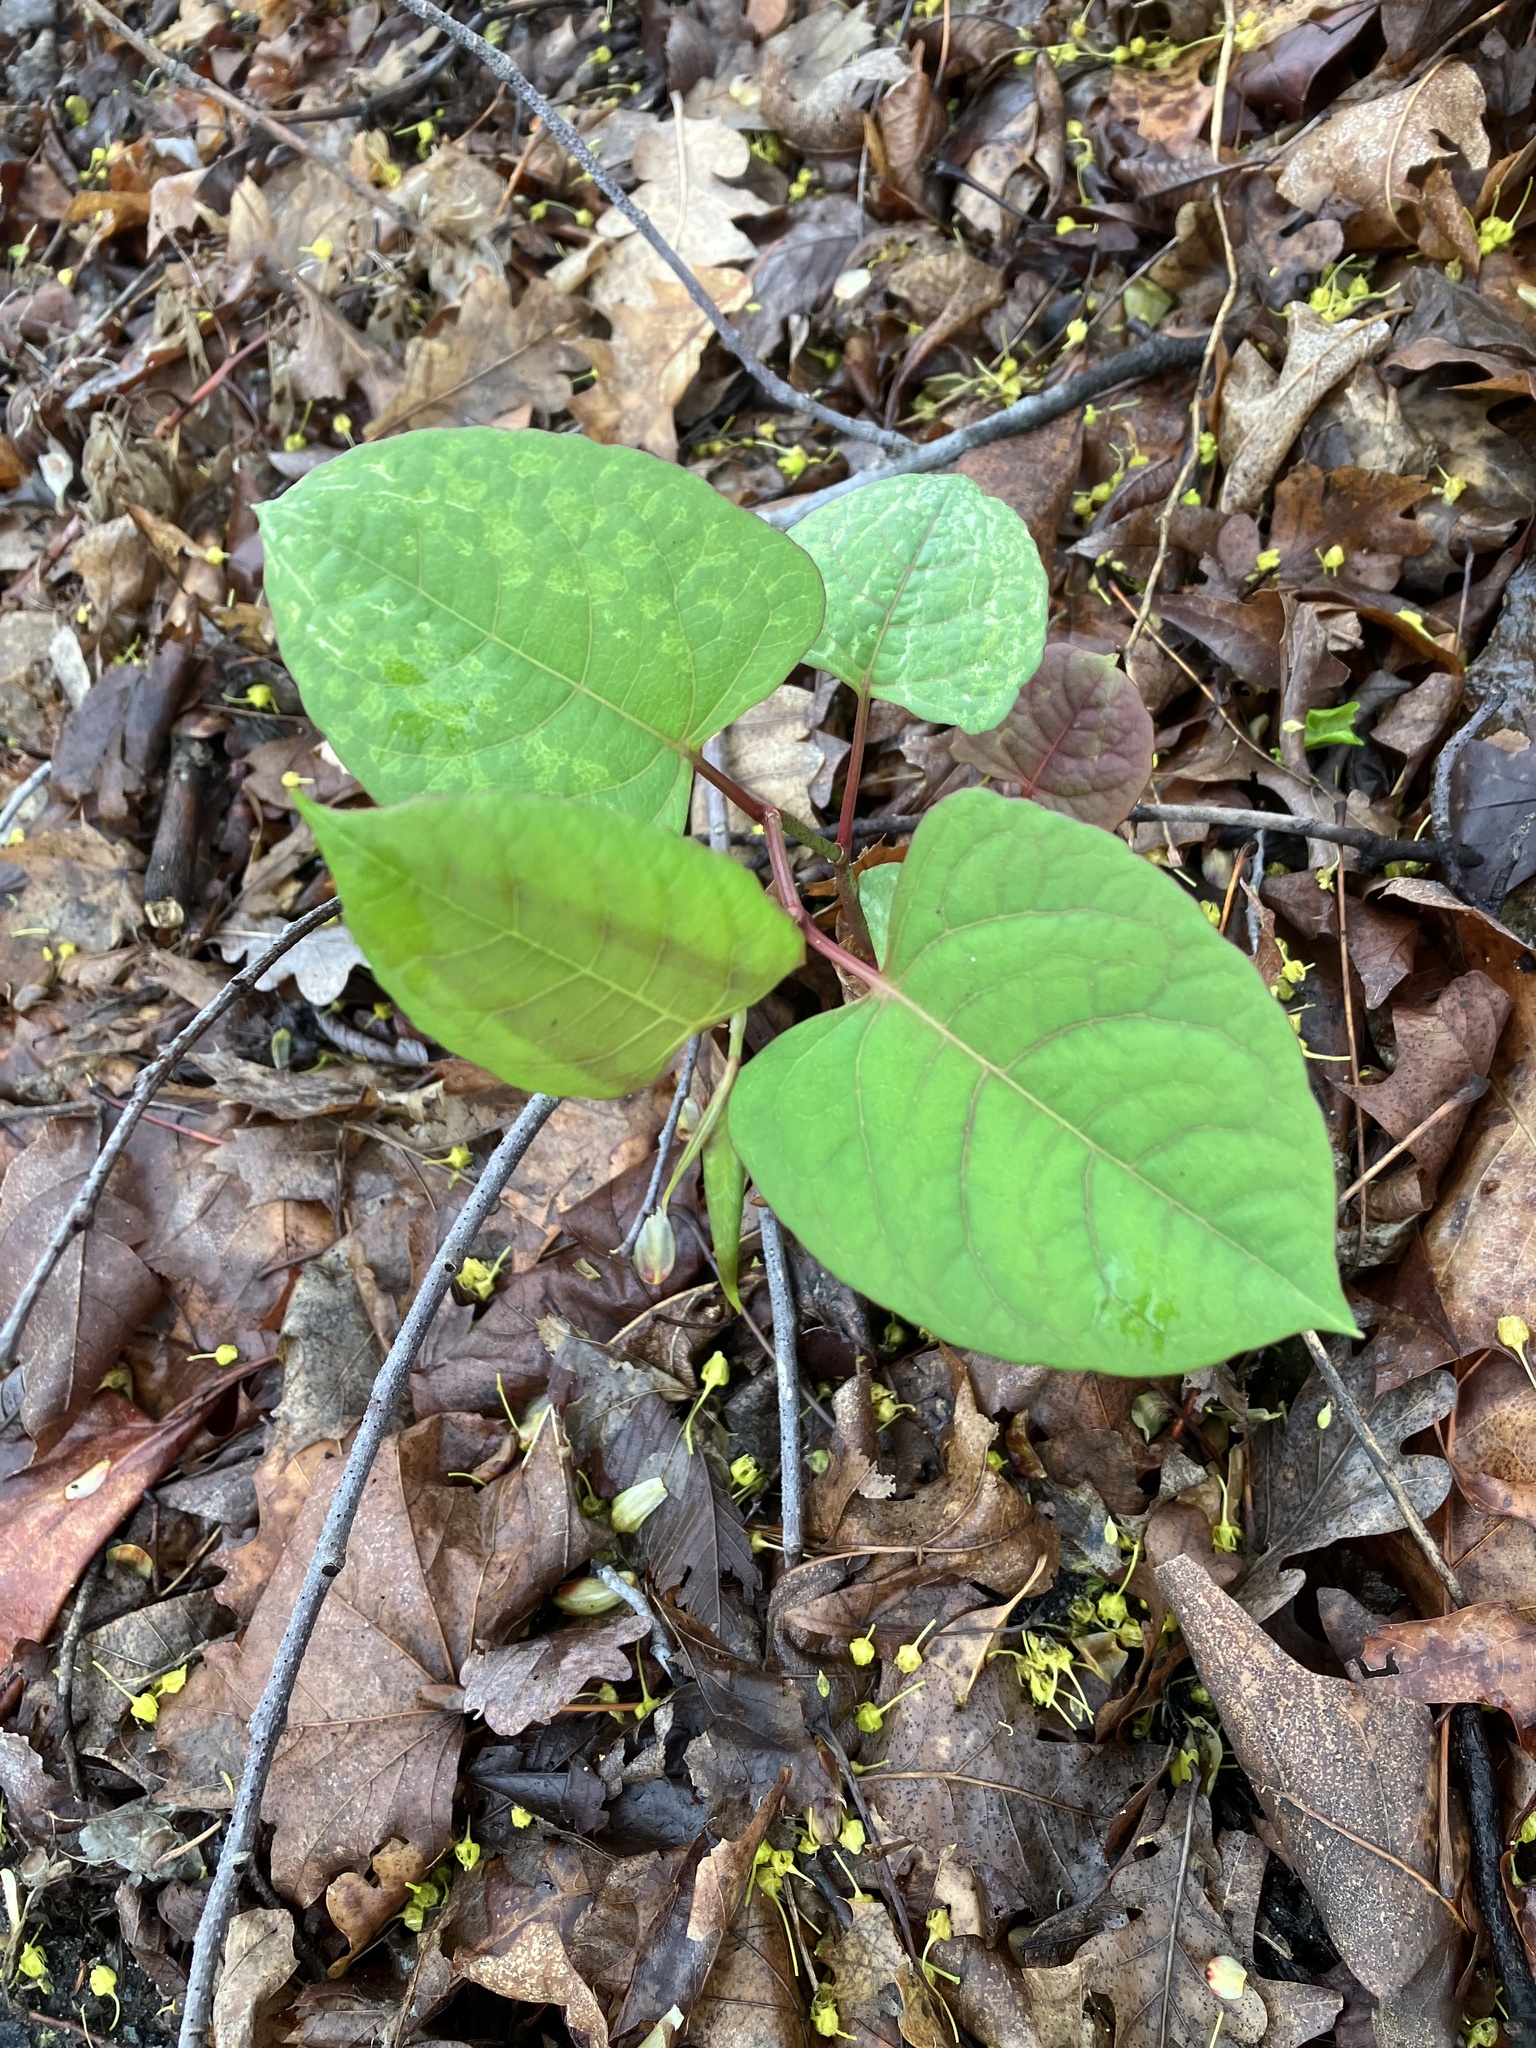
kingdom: Plantae
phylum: Tracheophyta
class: Magnoliopsida
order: Caryophyllales
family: Polygonaceae
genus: Reynoutria
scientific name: Reynoutria japonica
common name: Japanese knotweed
